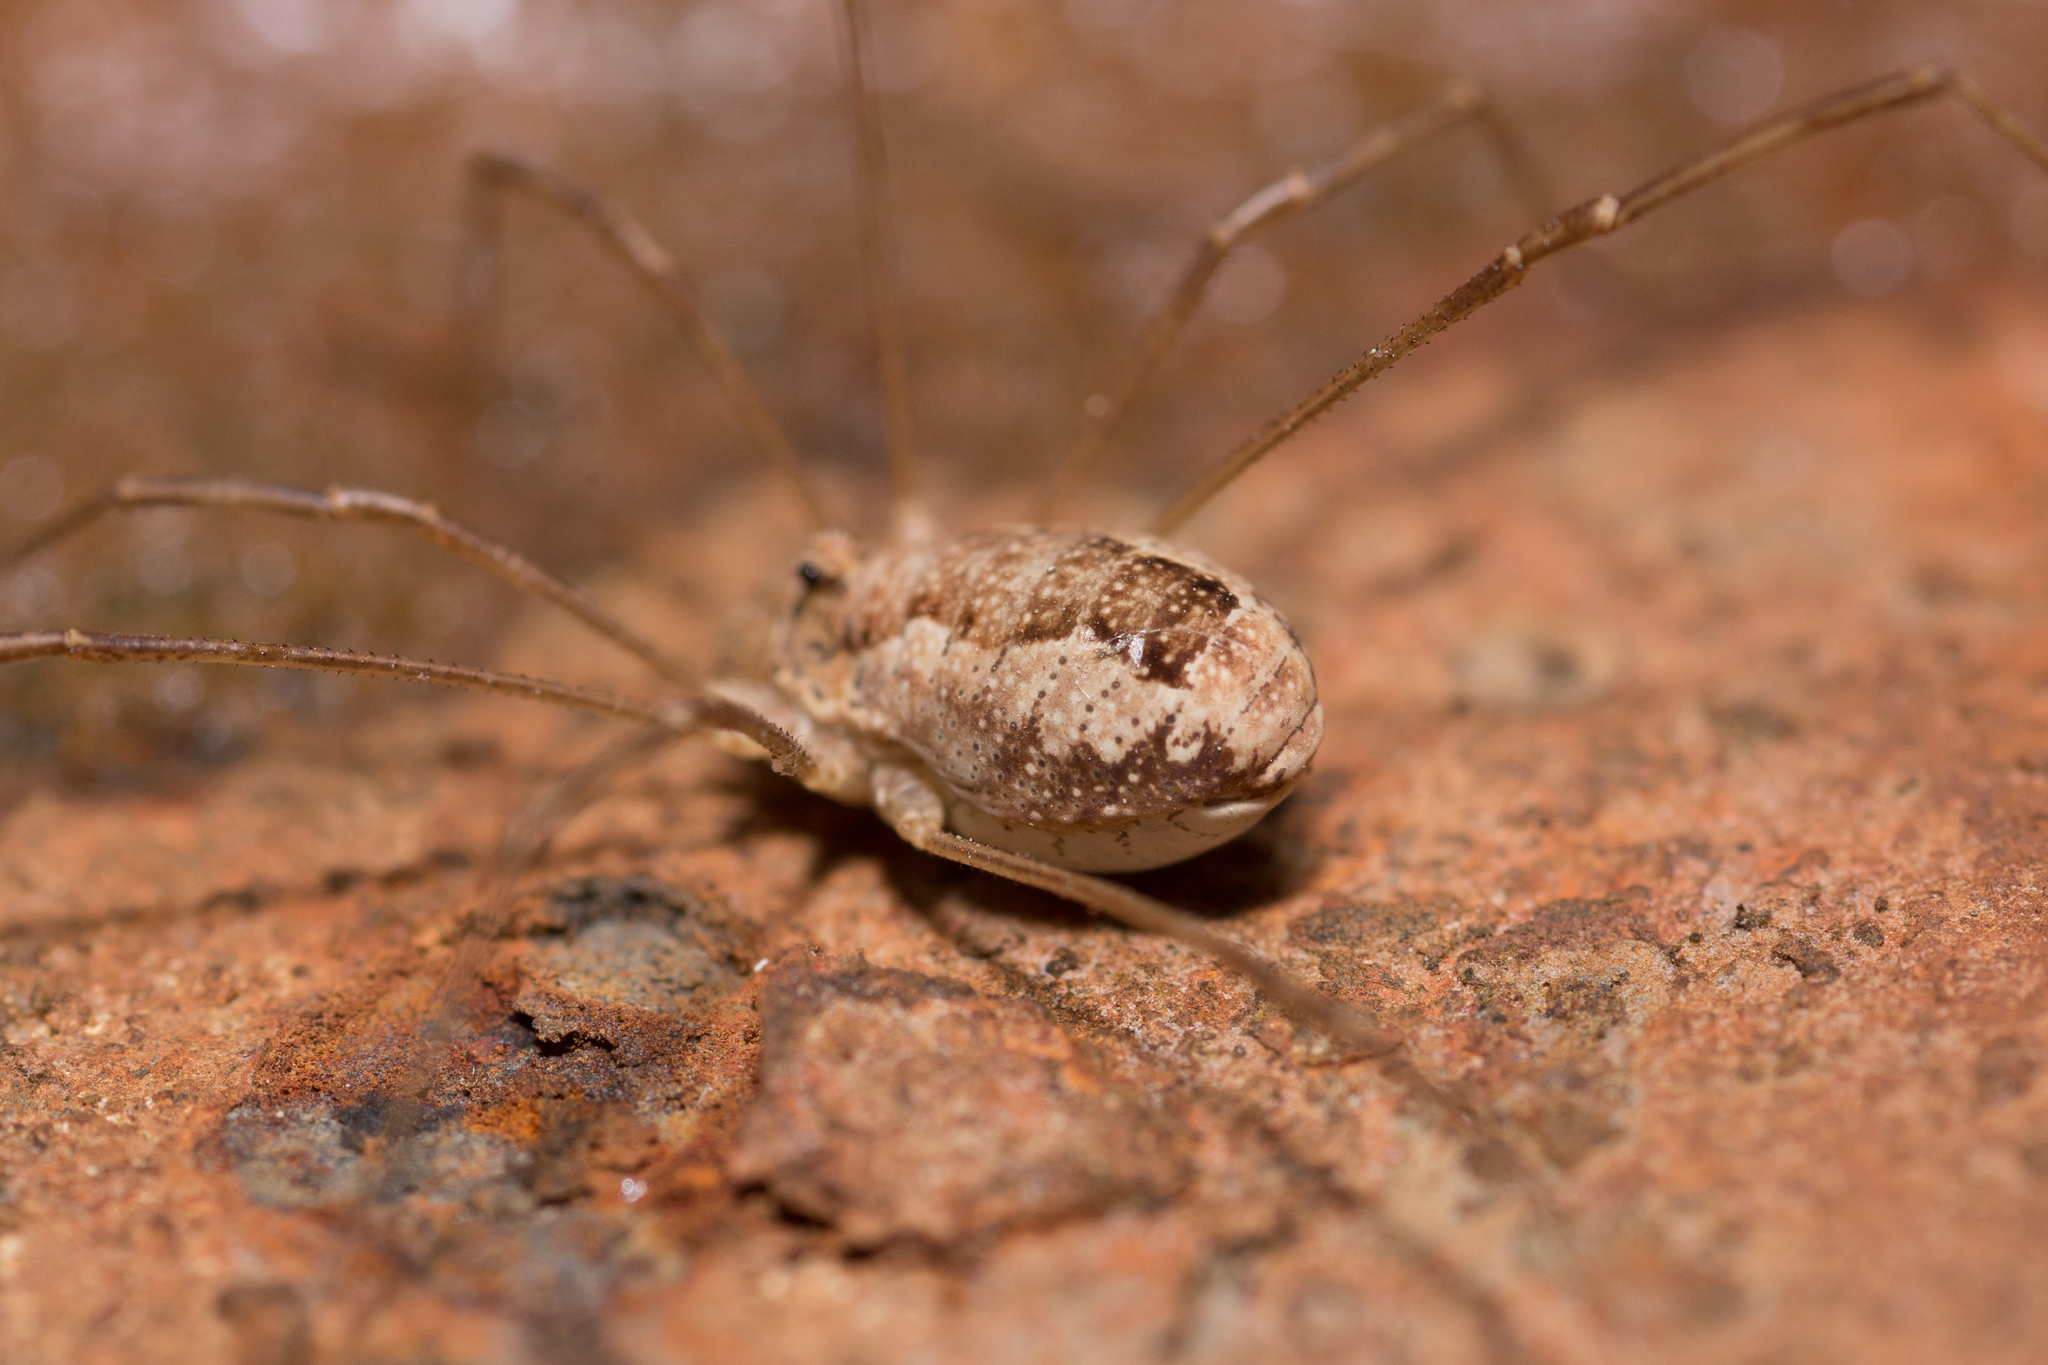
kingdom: Animalia
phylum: Arthropoda
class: Arachnida
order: Opiliones
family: Phalangiidae
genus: Rilaena
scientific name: Rilaena triangularis
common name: Spring harvestman
